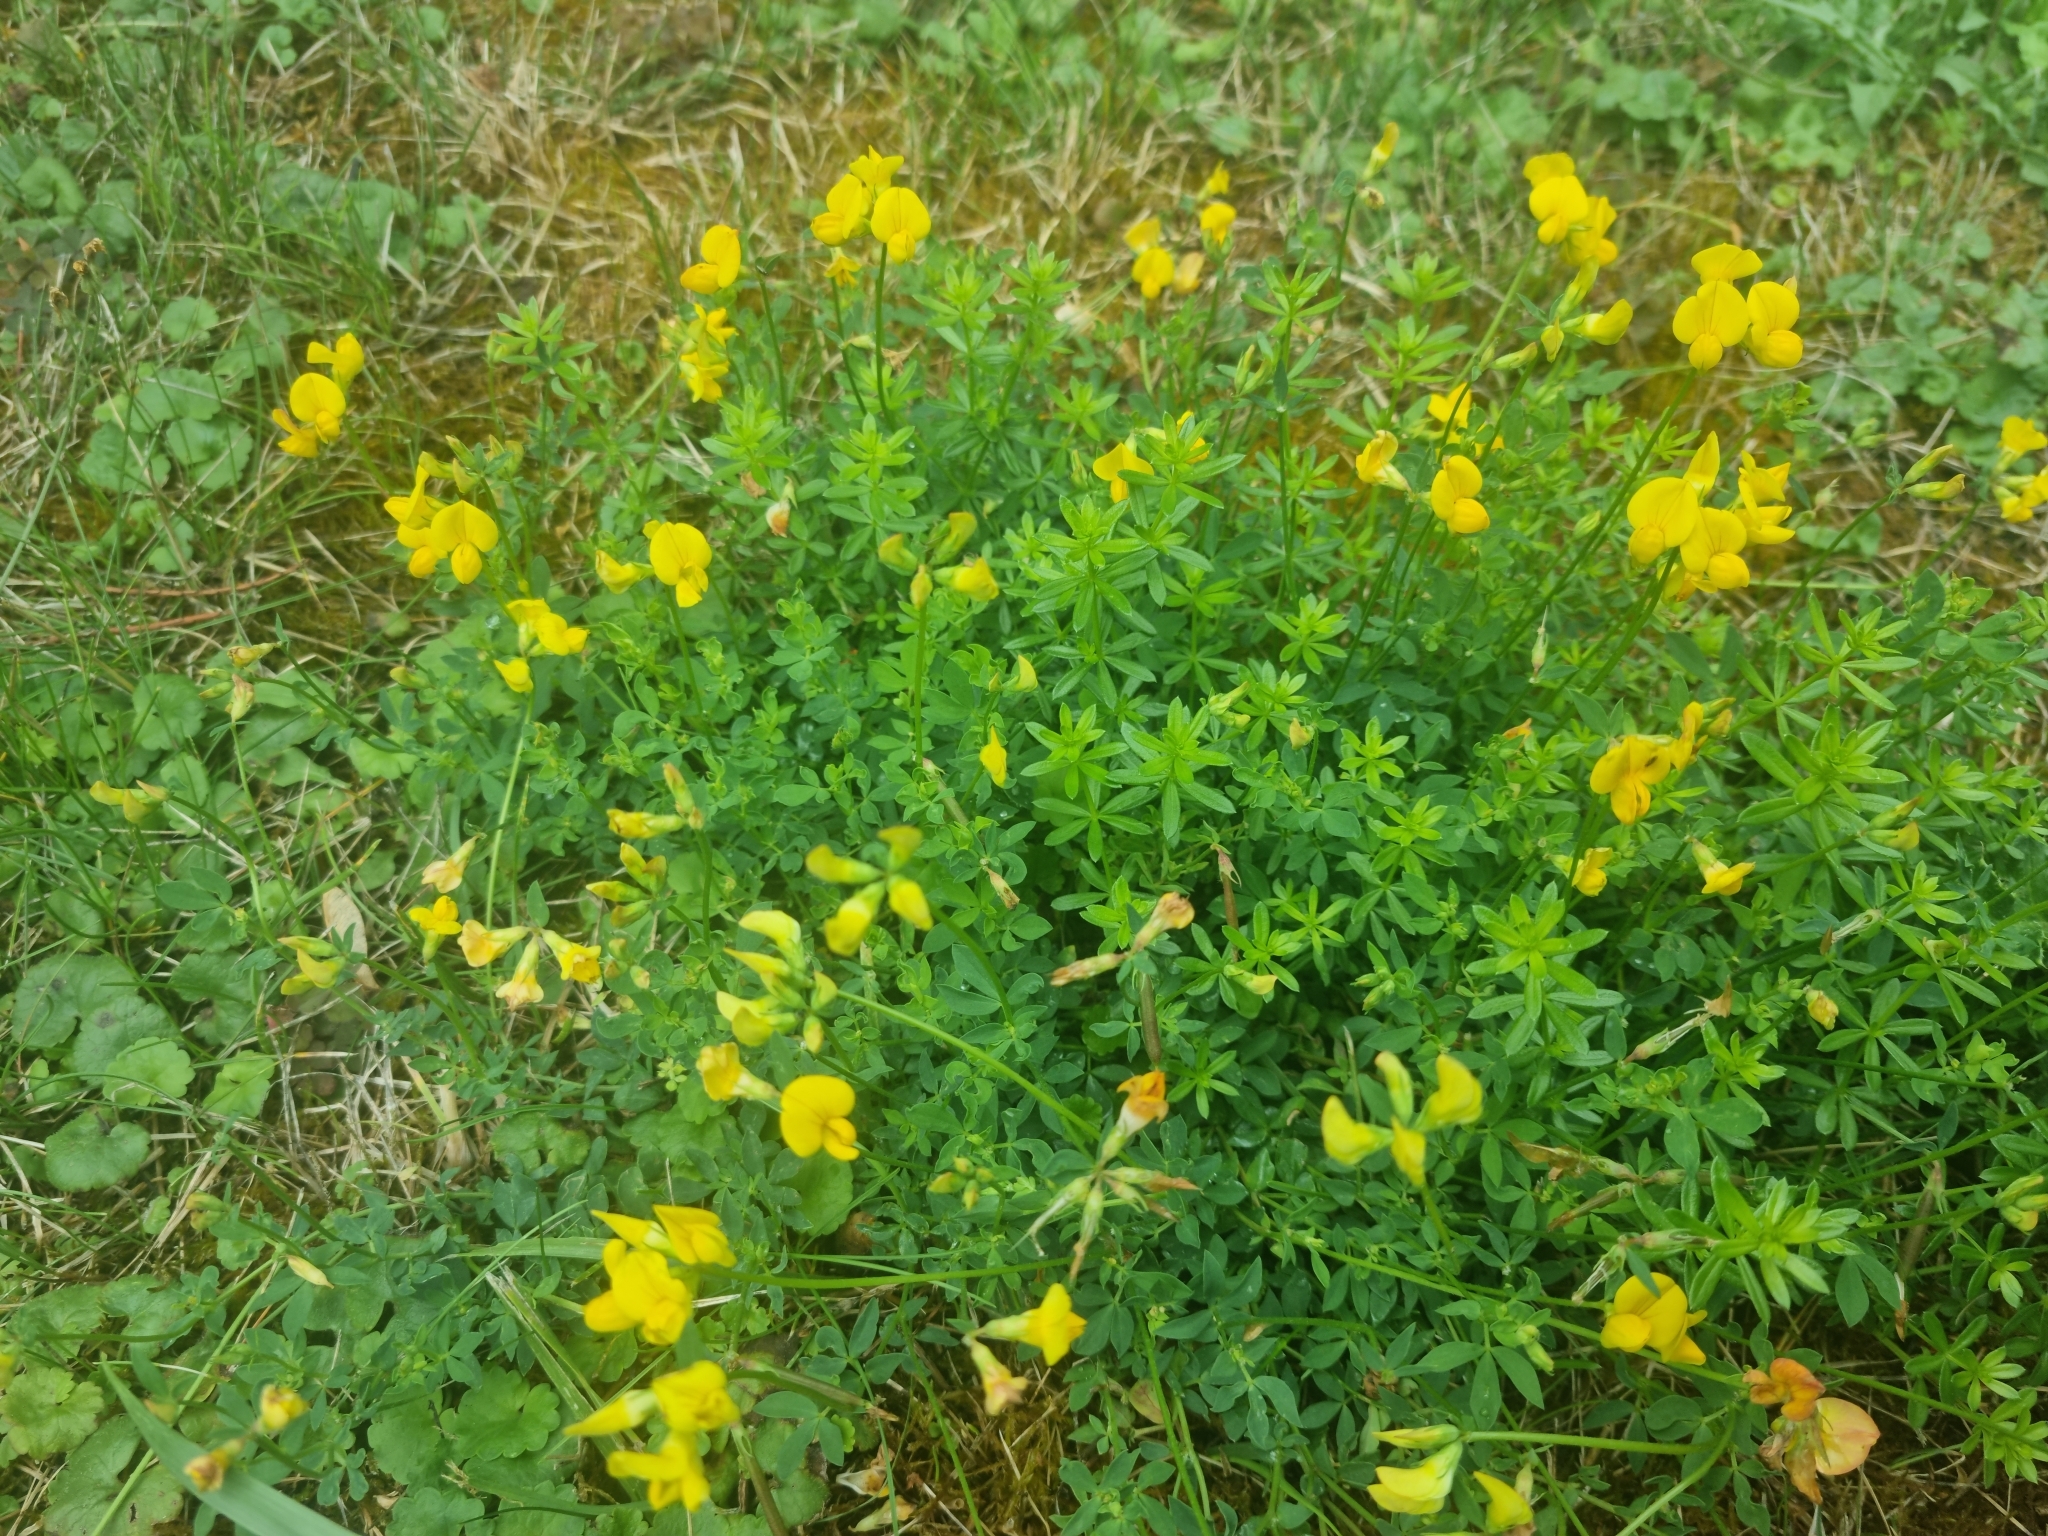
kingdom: Plantae
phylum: Tracheophyta
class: Magnoliopsida
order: Fabales
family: Fabaceae
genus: Lotus
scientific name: Lotus corniculatus
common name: Common bird's-foot-trefoil
